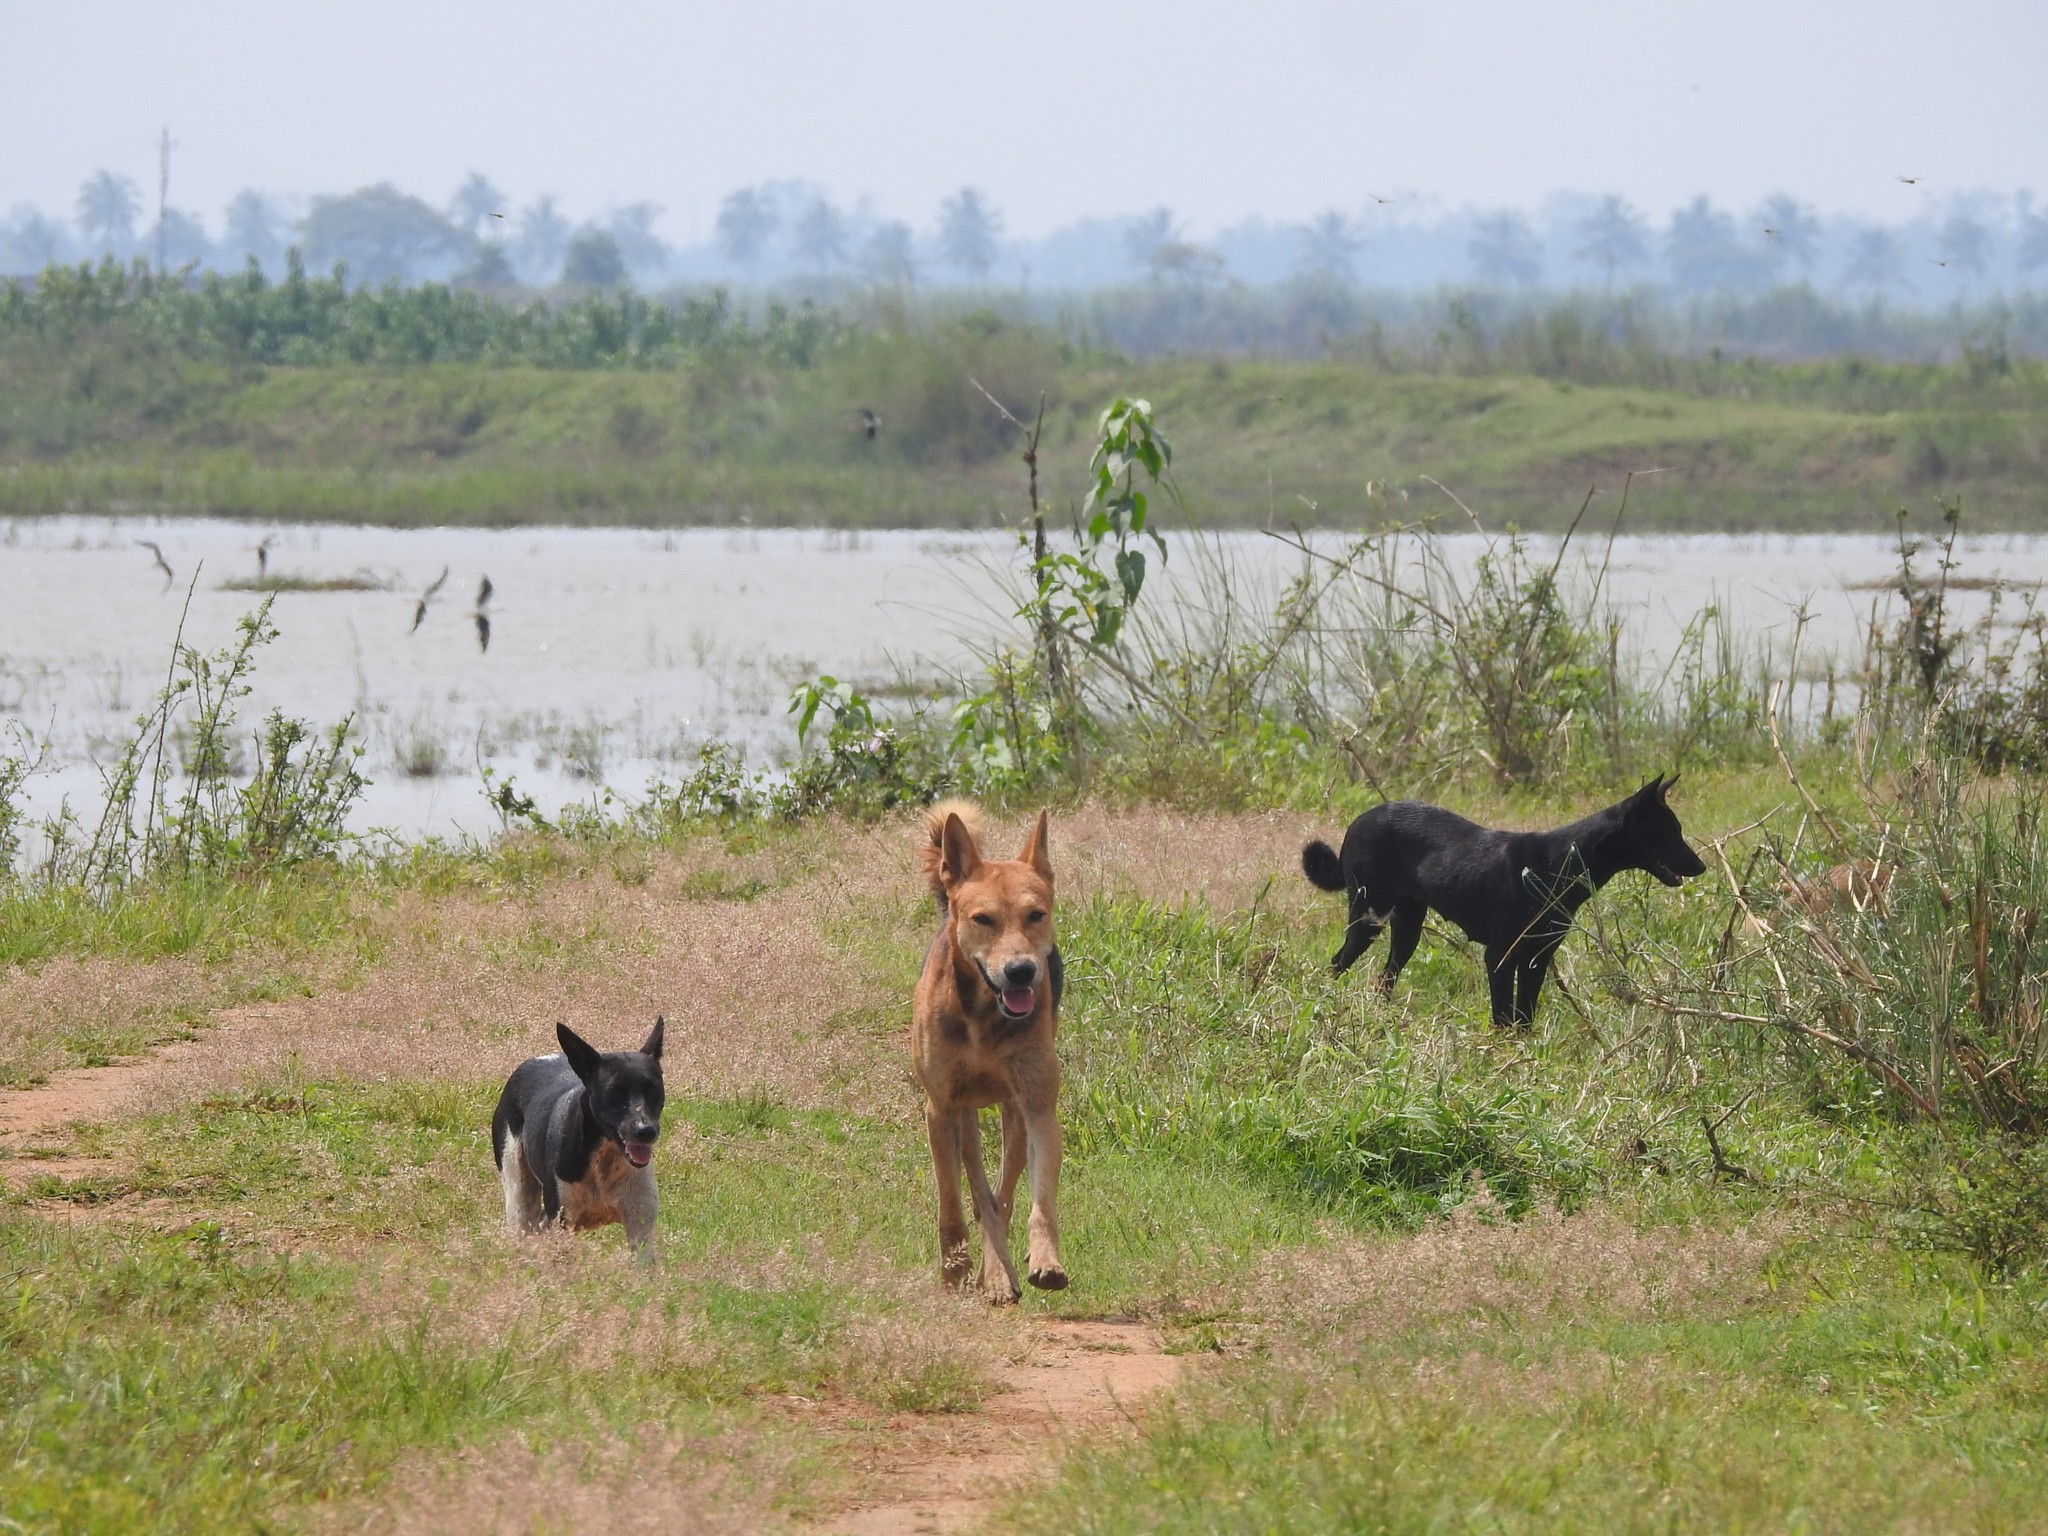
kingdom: Animalia
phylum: Chordata
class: Mammalia
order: Carnivora
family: Canidae
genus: Canis
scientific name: Canis lupus
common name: Gray wolf
